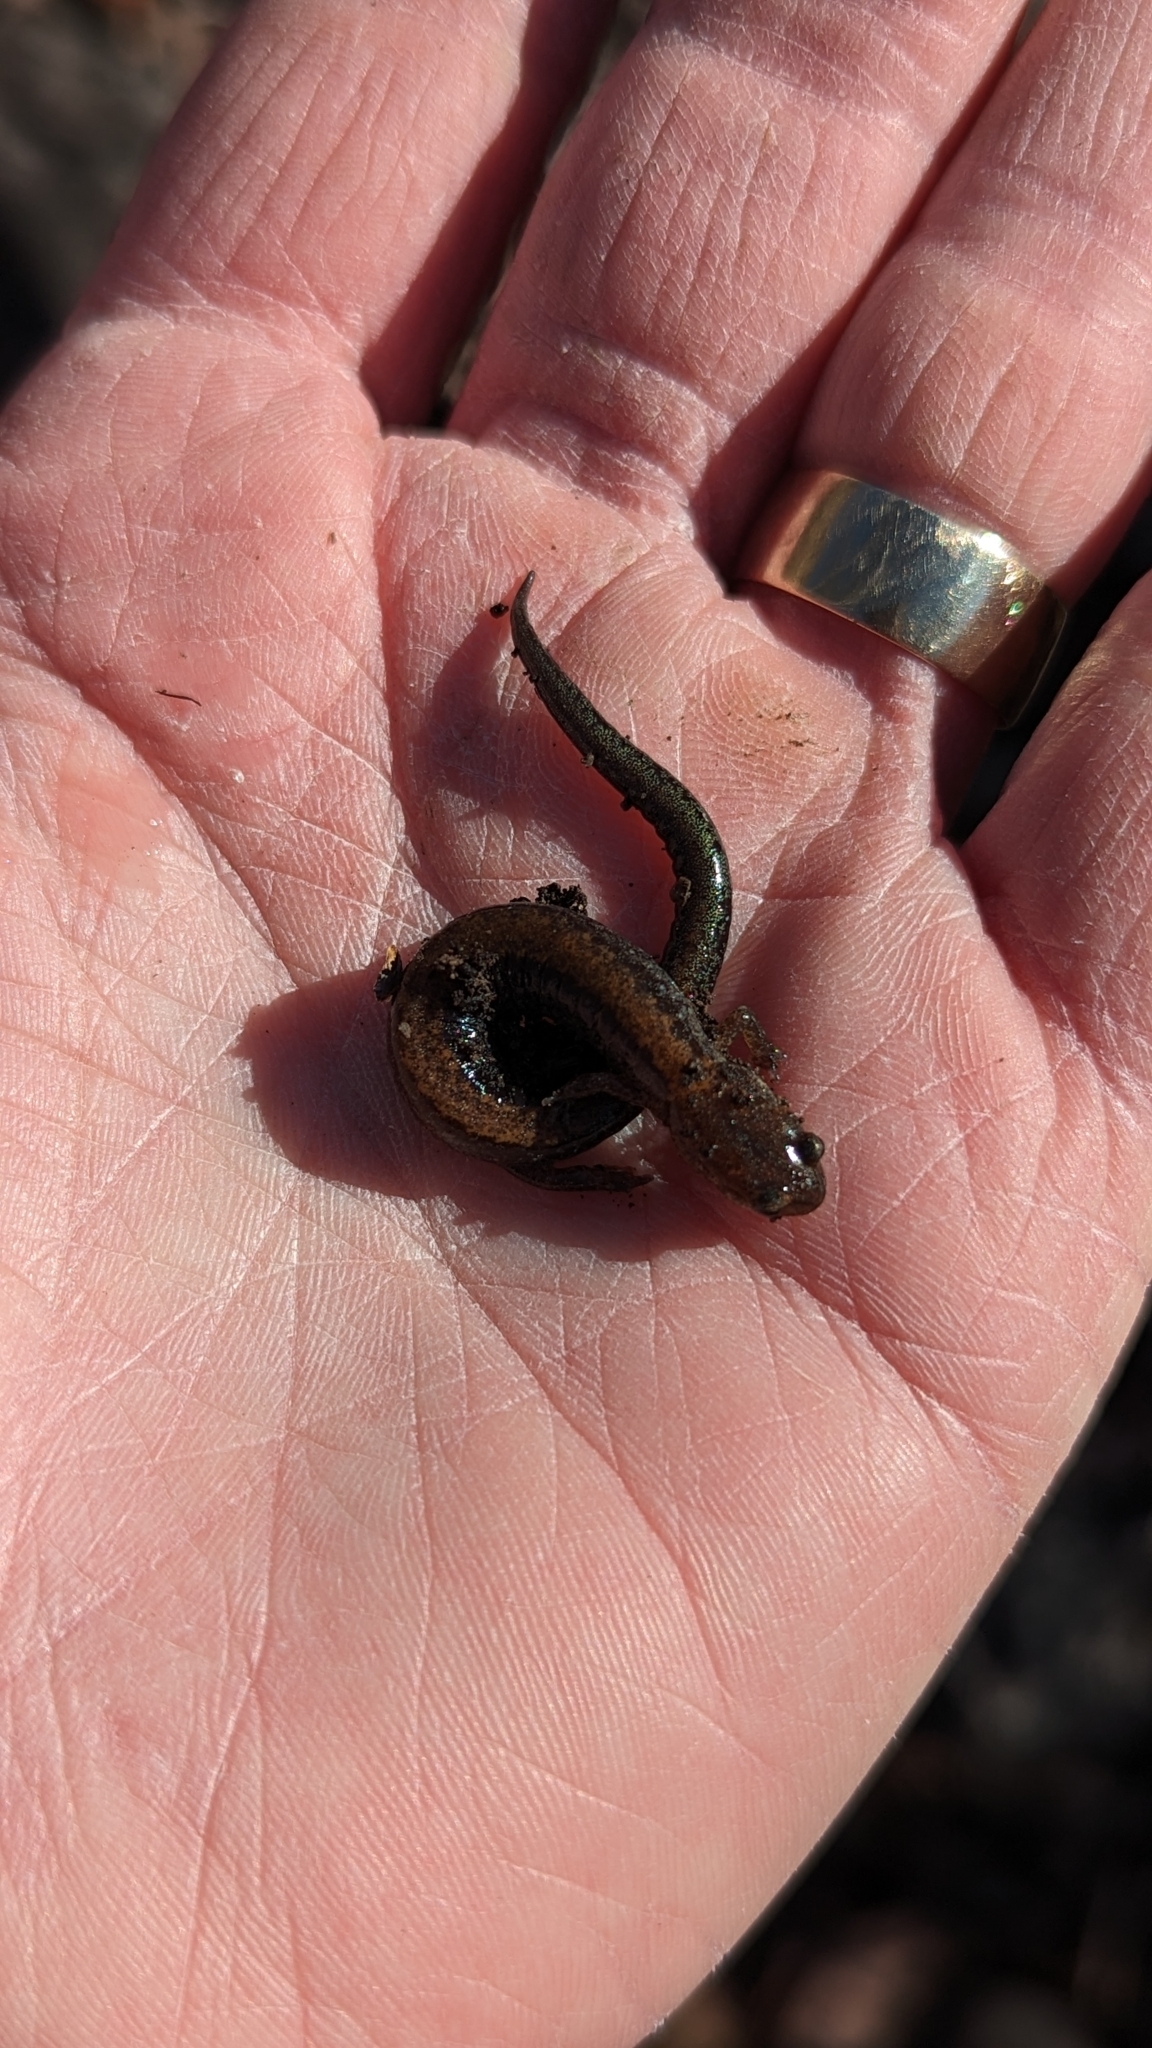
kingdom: Animalia
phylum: Chordata
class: Amphibia
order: Caudata
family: Plethodontidae
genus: Plethodon
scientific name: Plethodon cinereus
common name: Redback salamander
